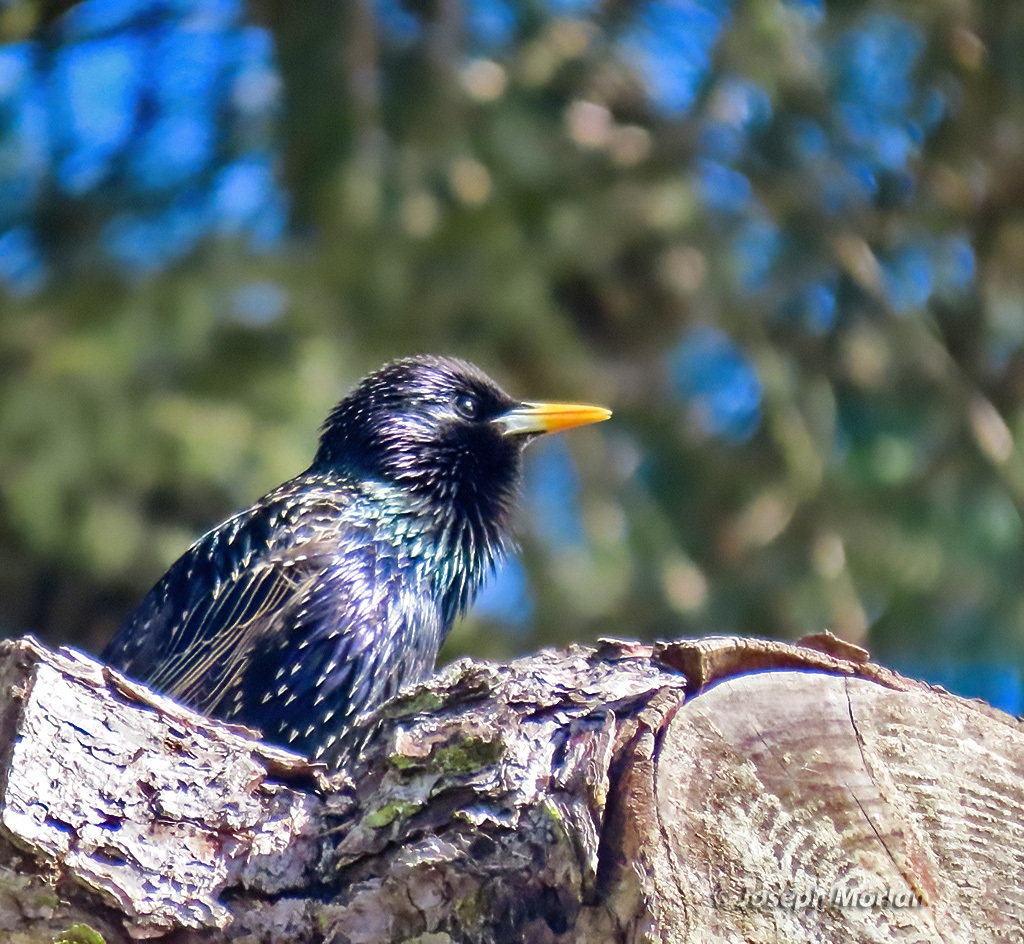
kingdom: Animalia
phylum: Chordata
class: Aves
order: Passeriformes
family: Sturnidae
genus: Sturnus
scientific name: Sturnus vulgaris
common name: Common starling
